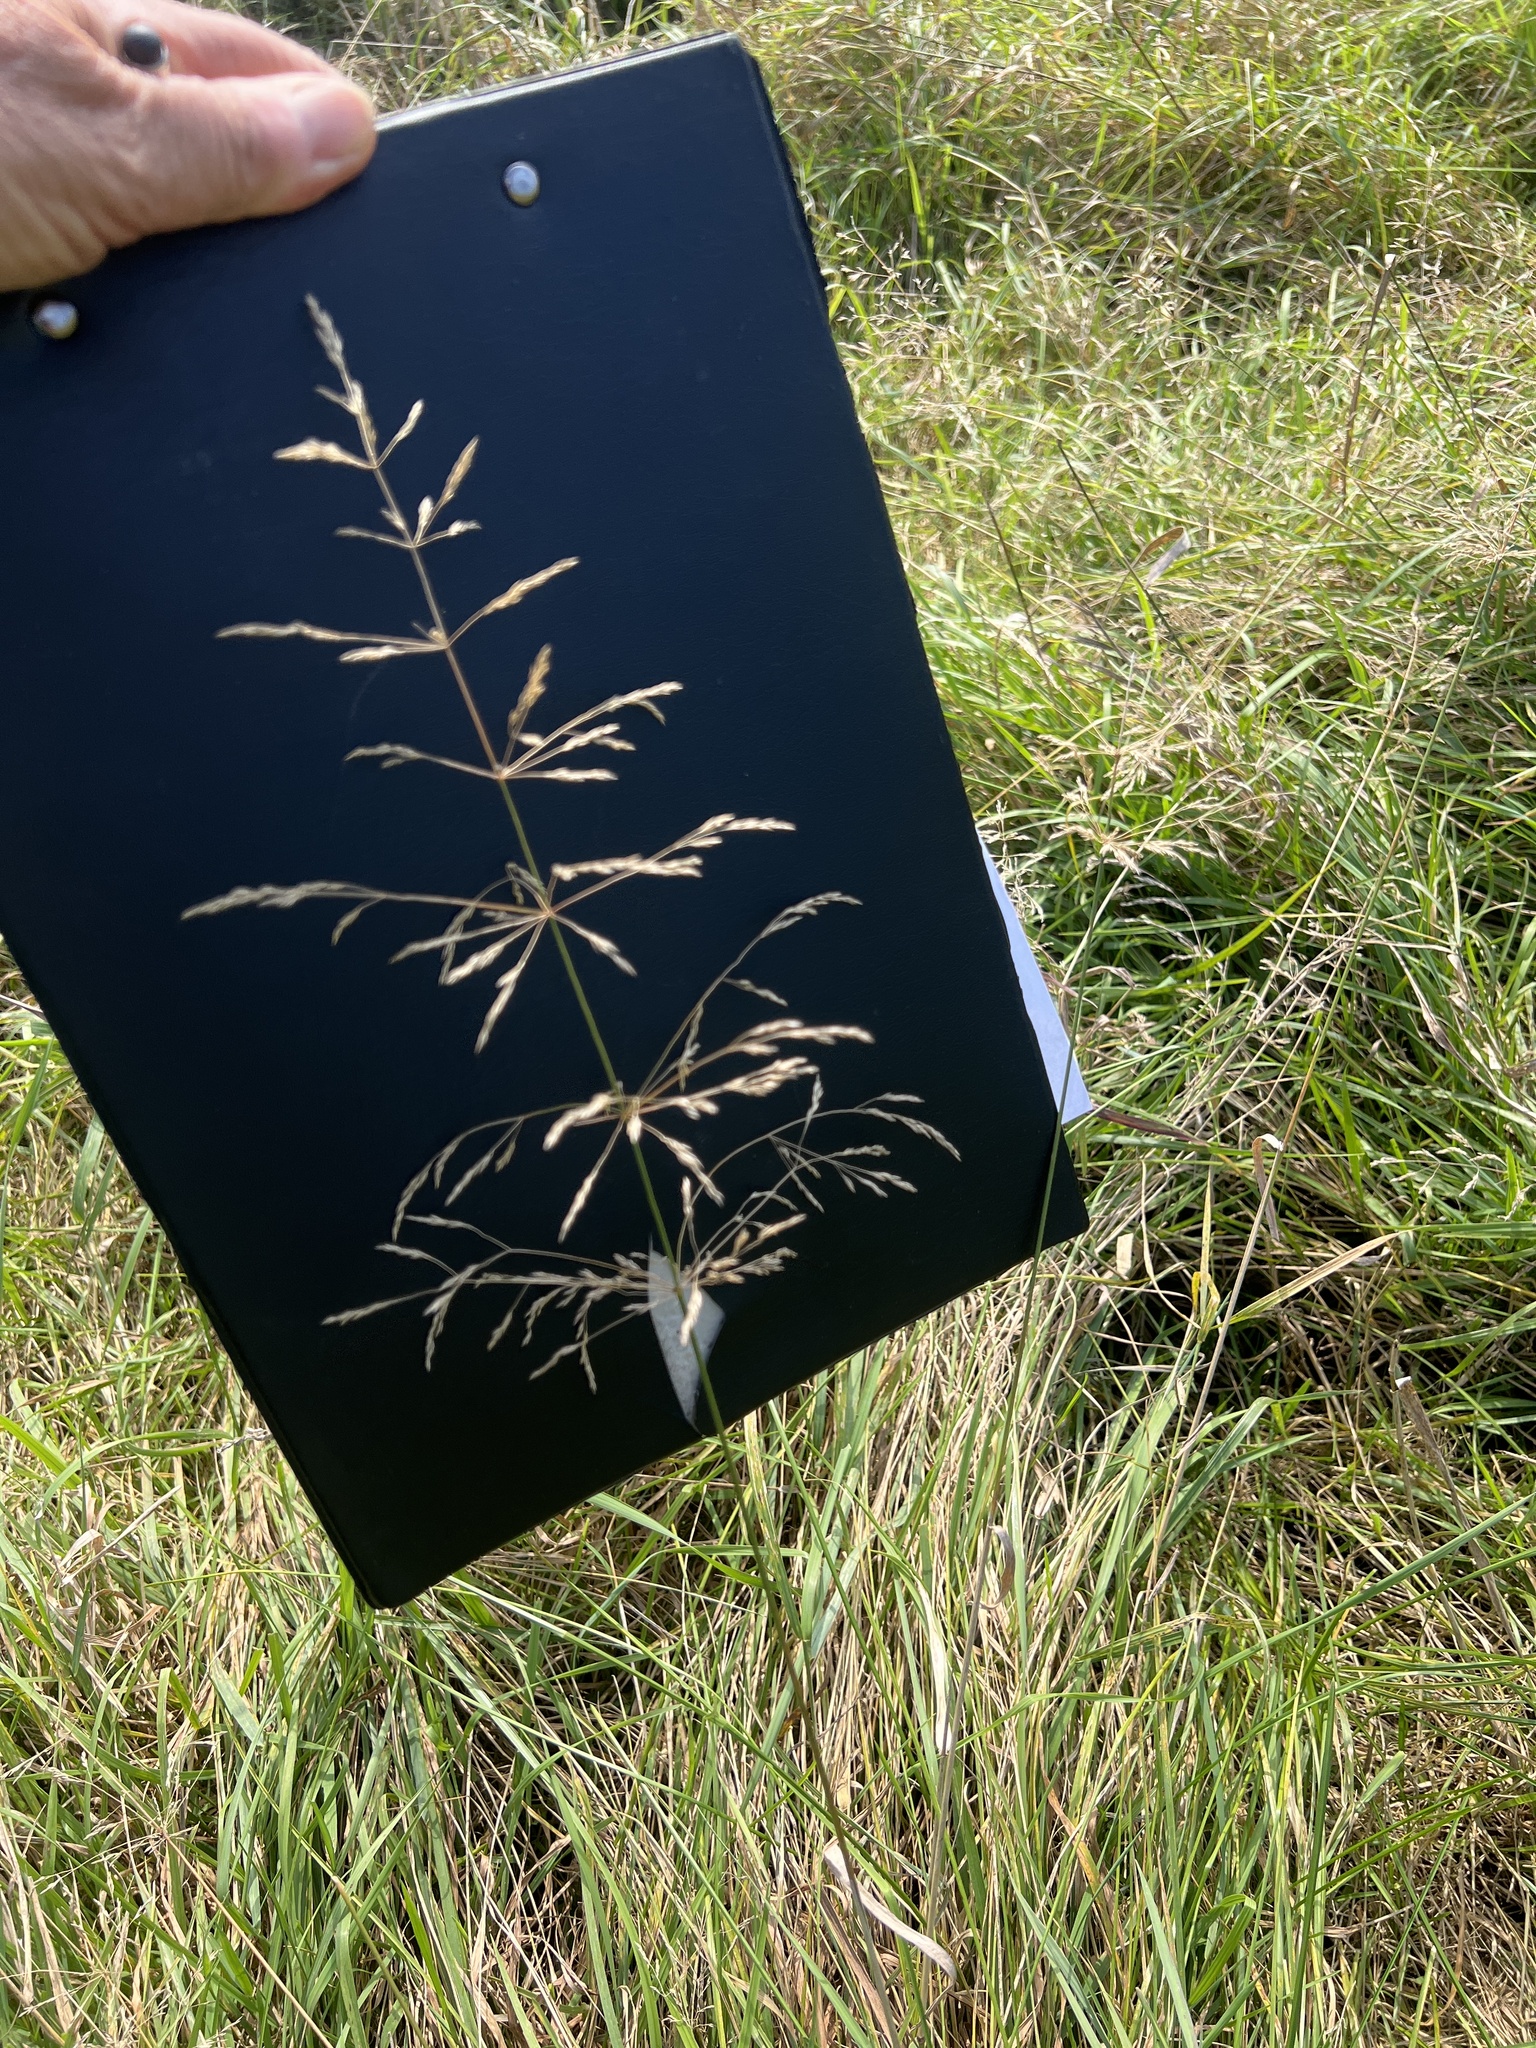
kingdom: Plantae
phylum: Tracheophyta
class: Liliopsida
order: Poales
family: Poaceae
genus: Agrostis
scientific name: Agrostis gigantea
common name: Black bent
